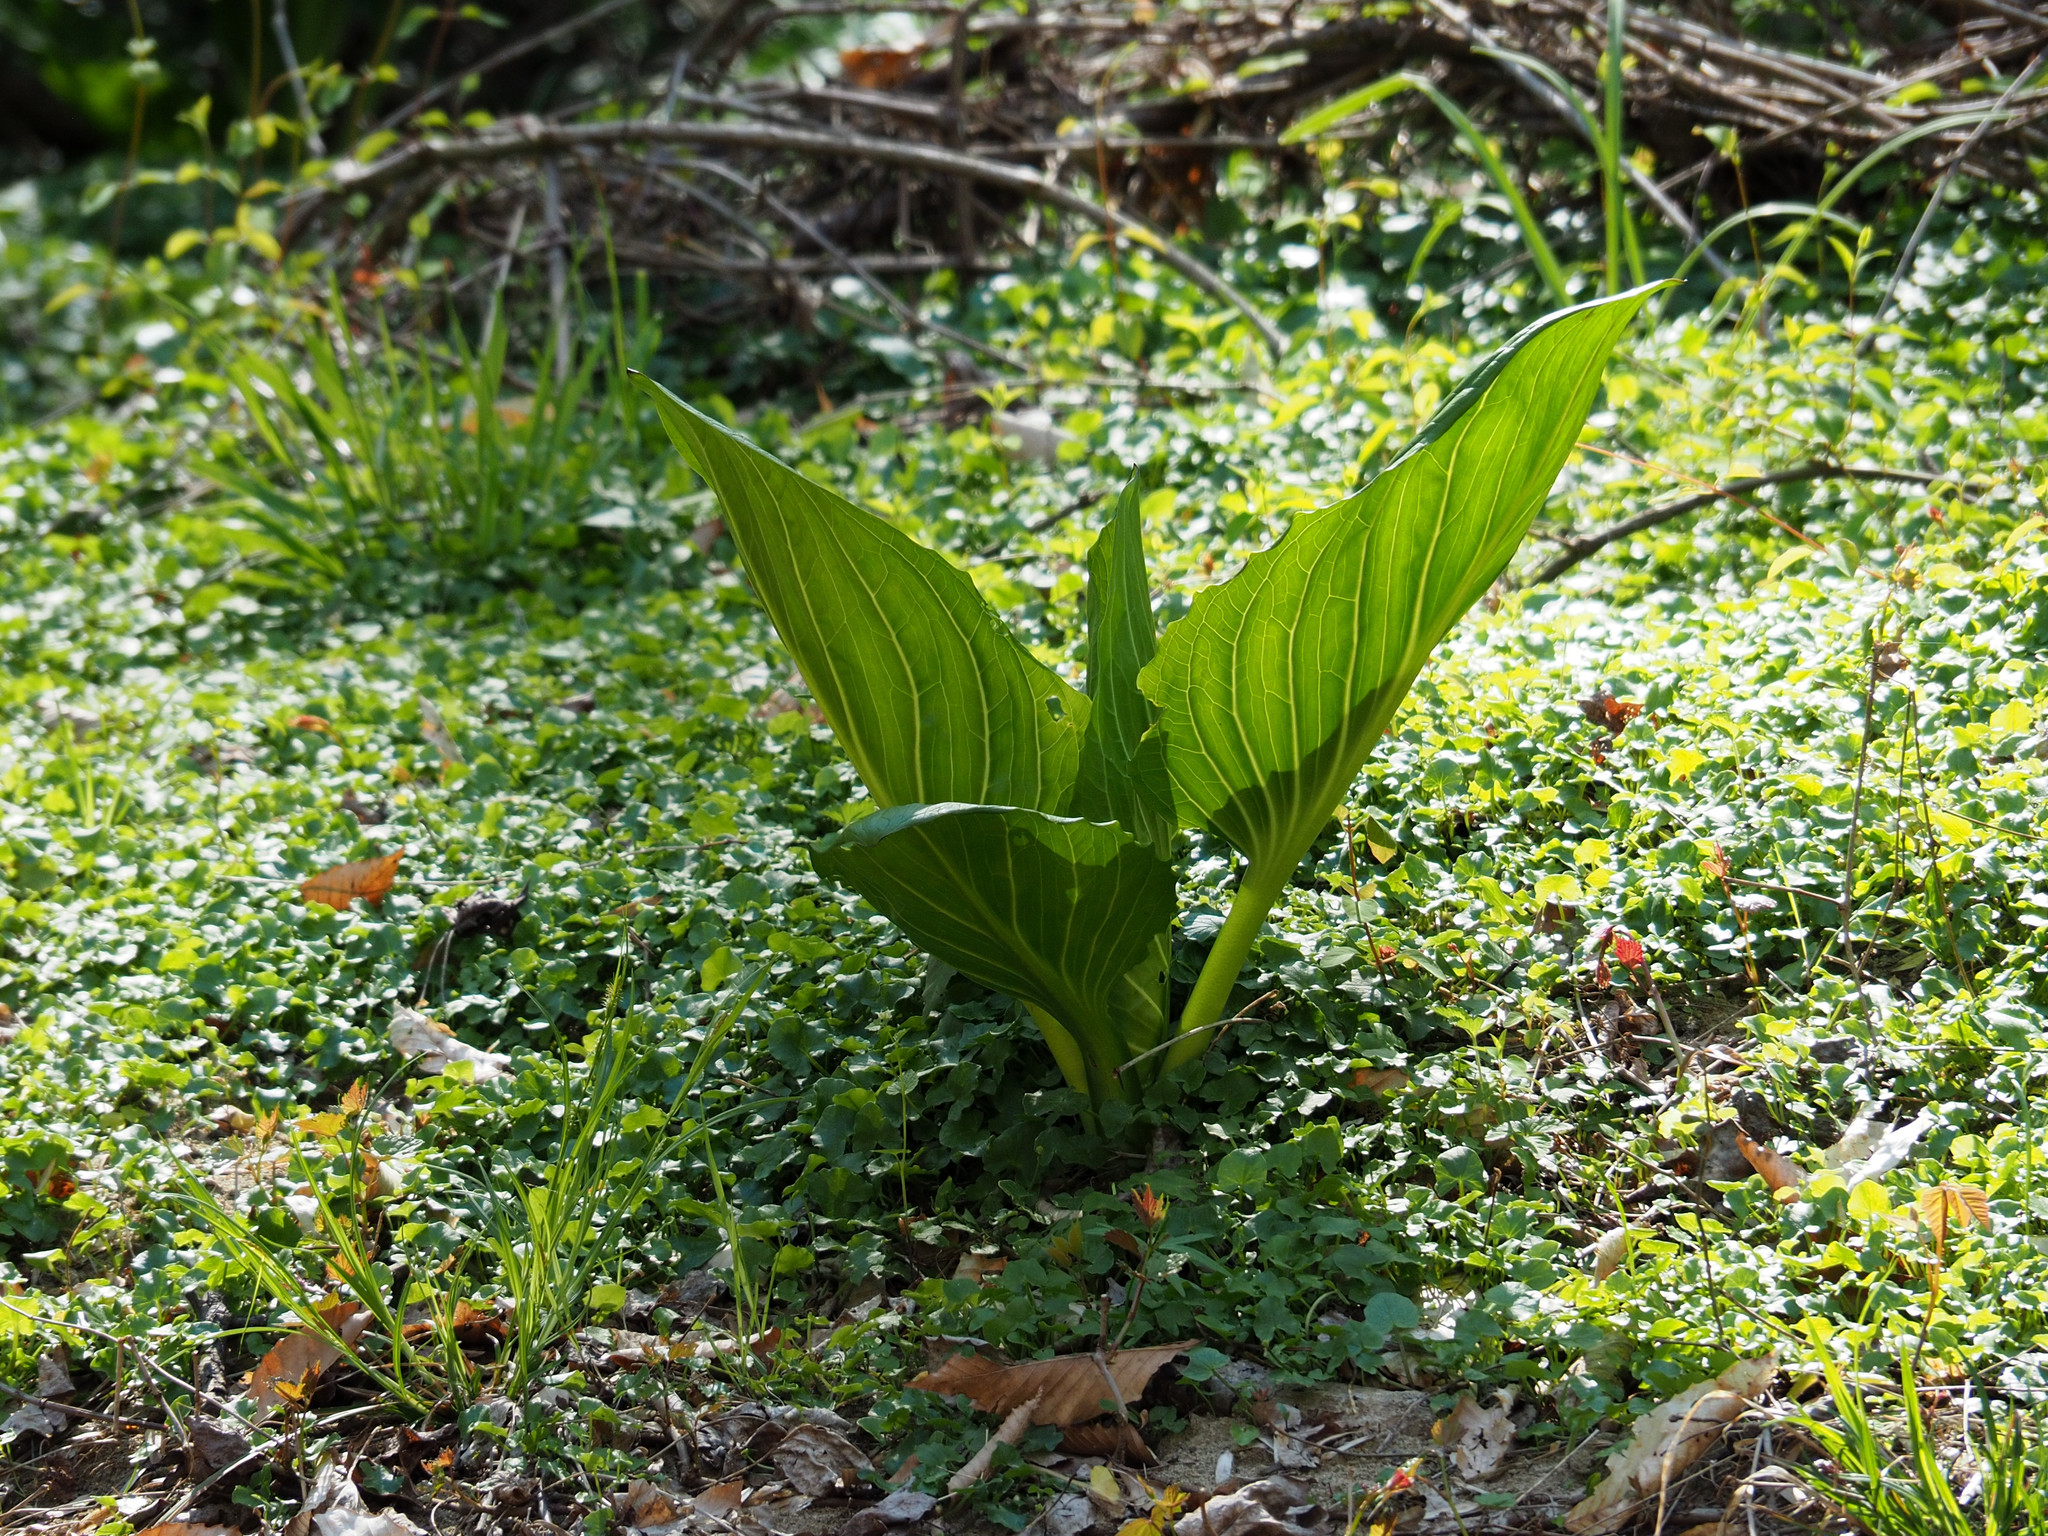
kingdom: Plantae
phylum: Tracheophyta
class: Liliopsida
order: Alismatales
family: Araceae
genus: Symplocarpus
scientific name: Symplocarpus foetidus
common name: Eastern skunk cabbage
